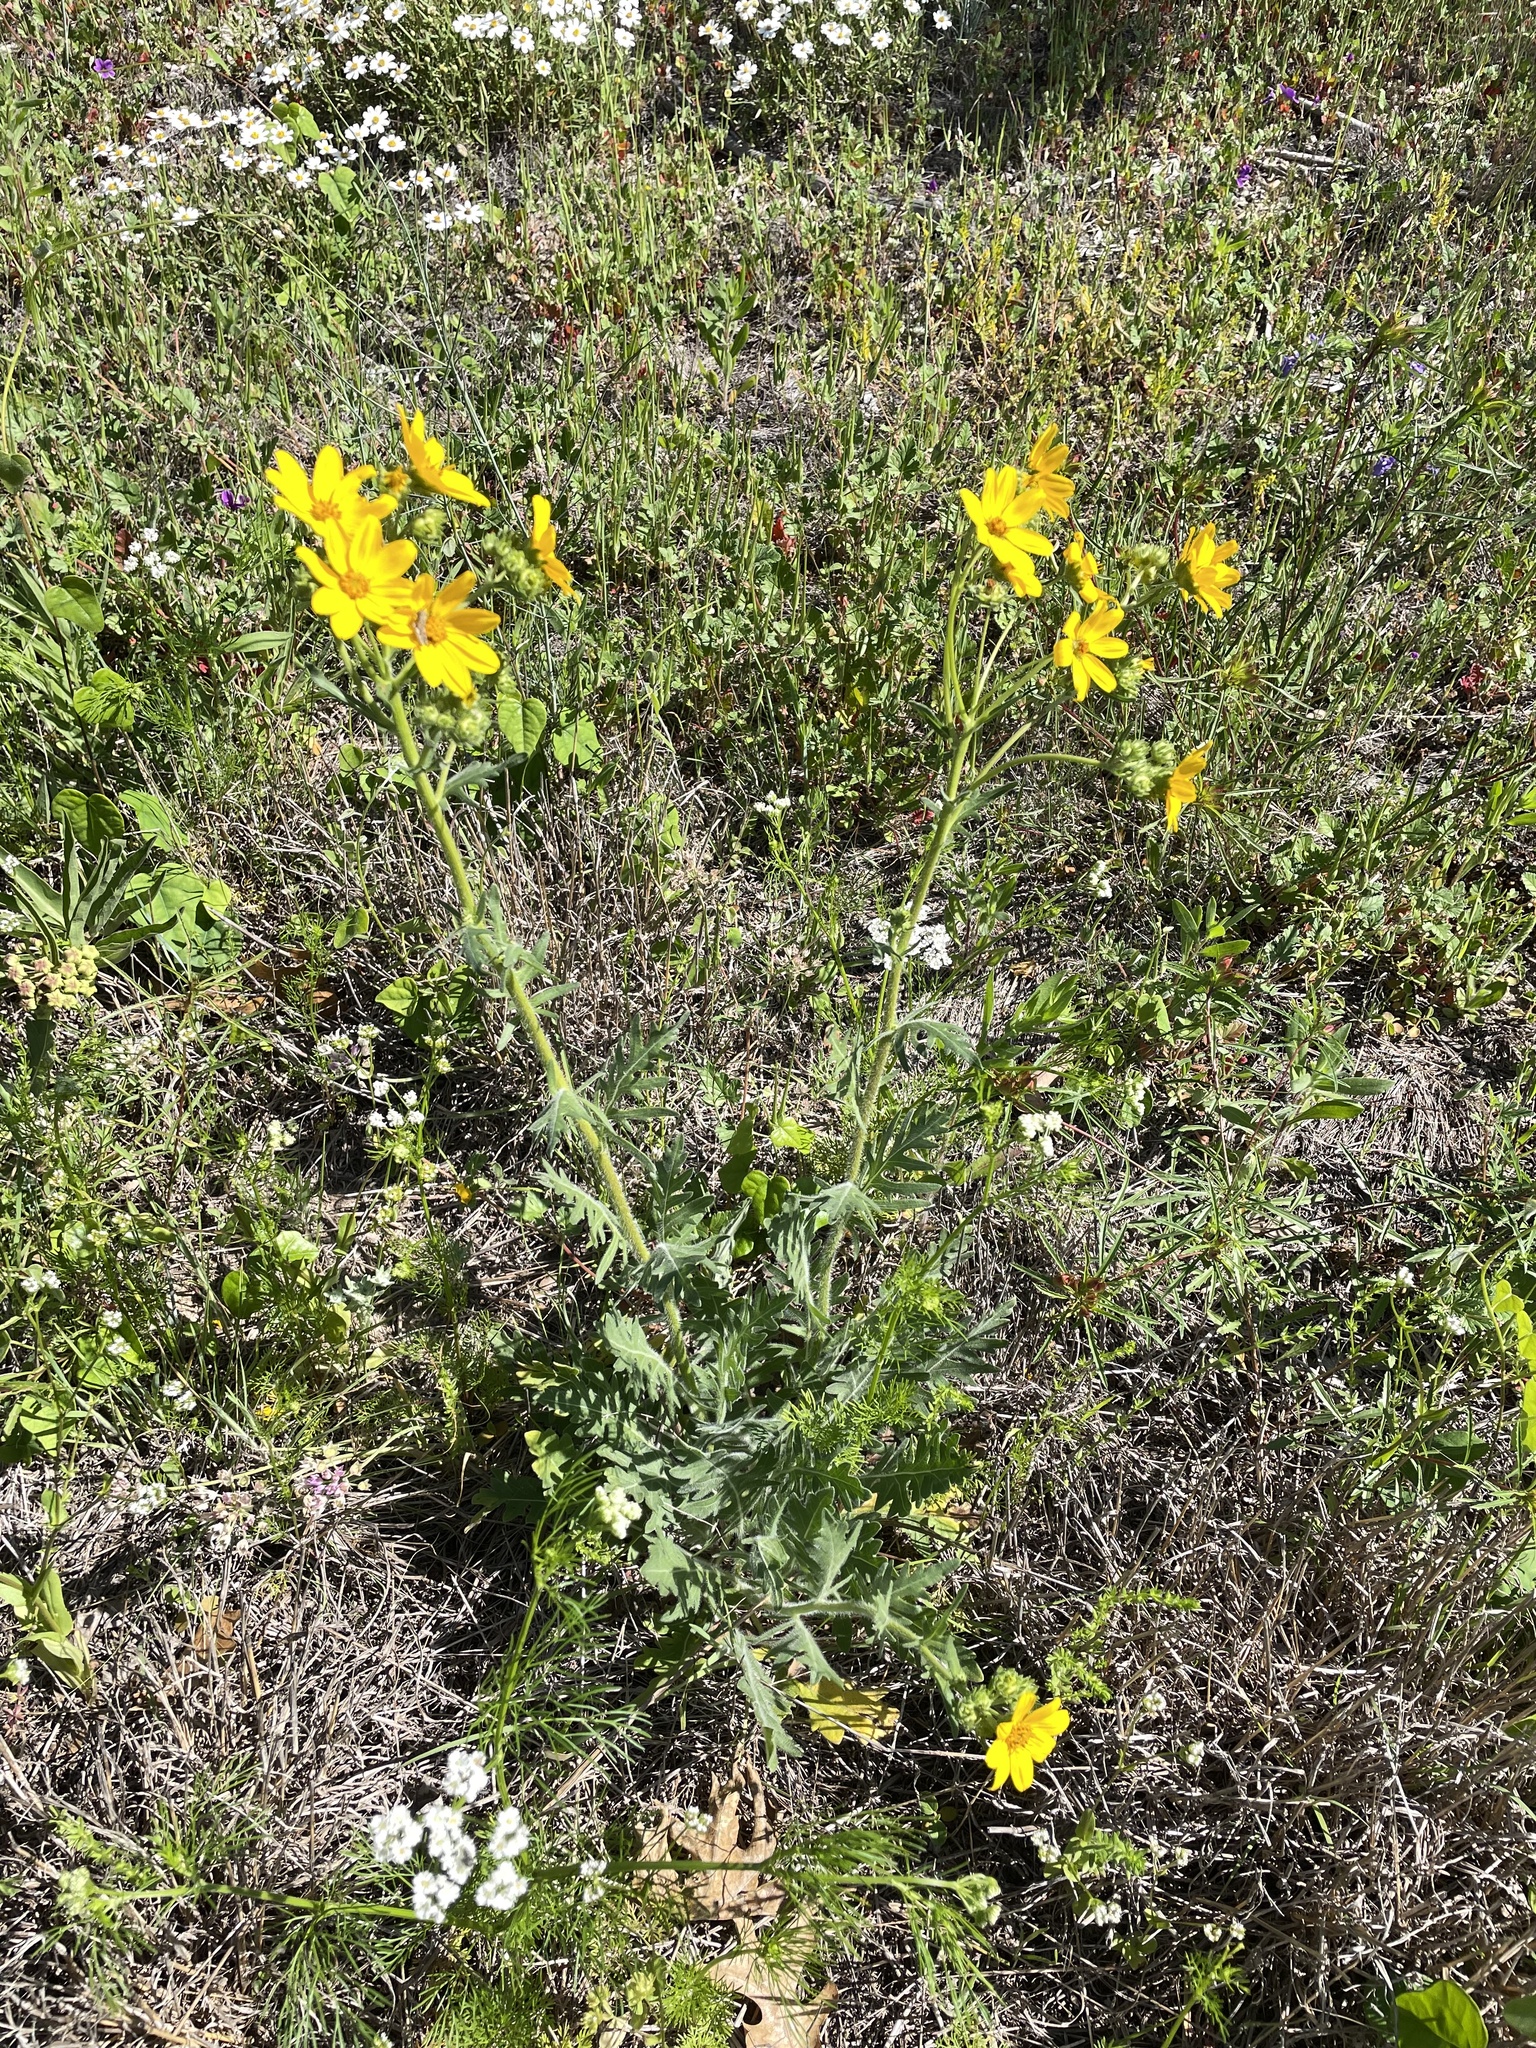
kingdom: Plantae
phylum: Tracheophyta
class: Magnoliopsida
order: Asterales
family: Asteraceae
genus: Engelmannia
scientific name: Engelmannia peristenia
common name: Engelmann's daisy
